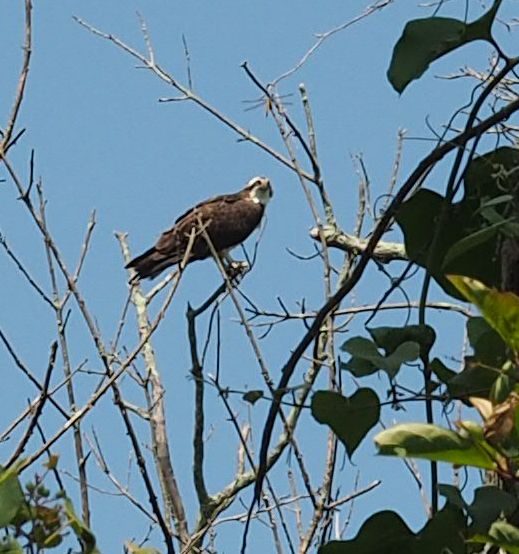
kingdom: Animalia
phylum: Chordata
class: Aves
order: Accipitriformes
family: Pandionidae
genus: Pandion
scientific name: Pandion haliaetus
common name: Osprey
